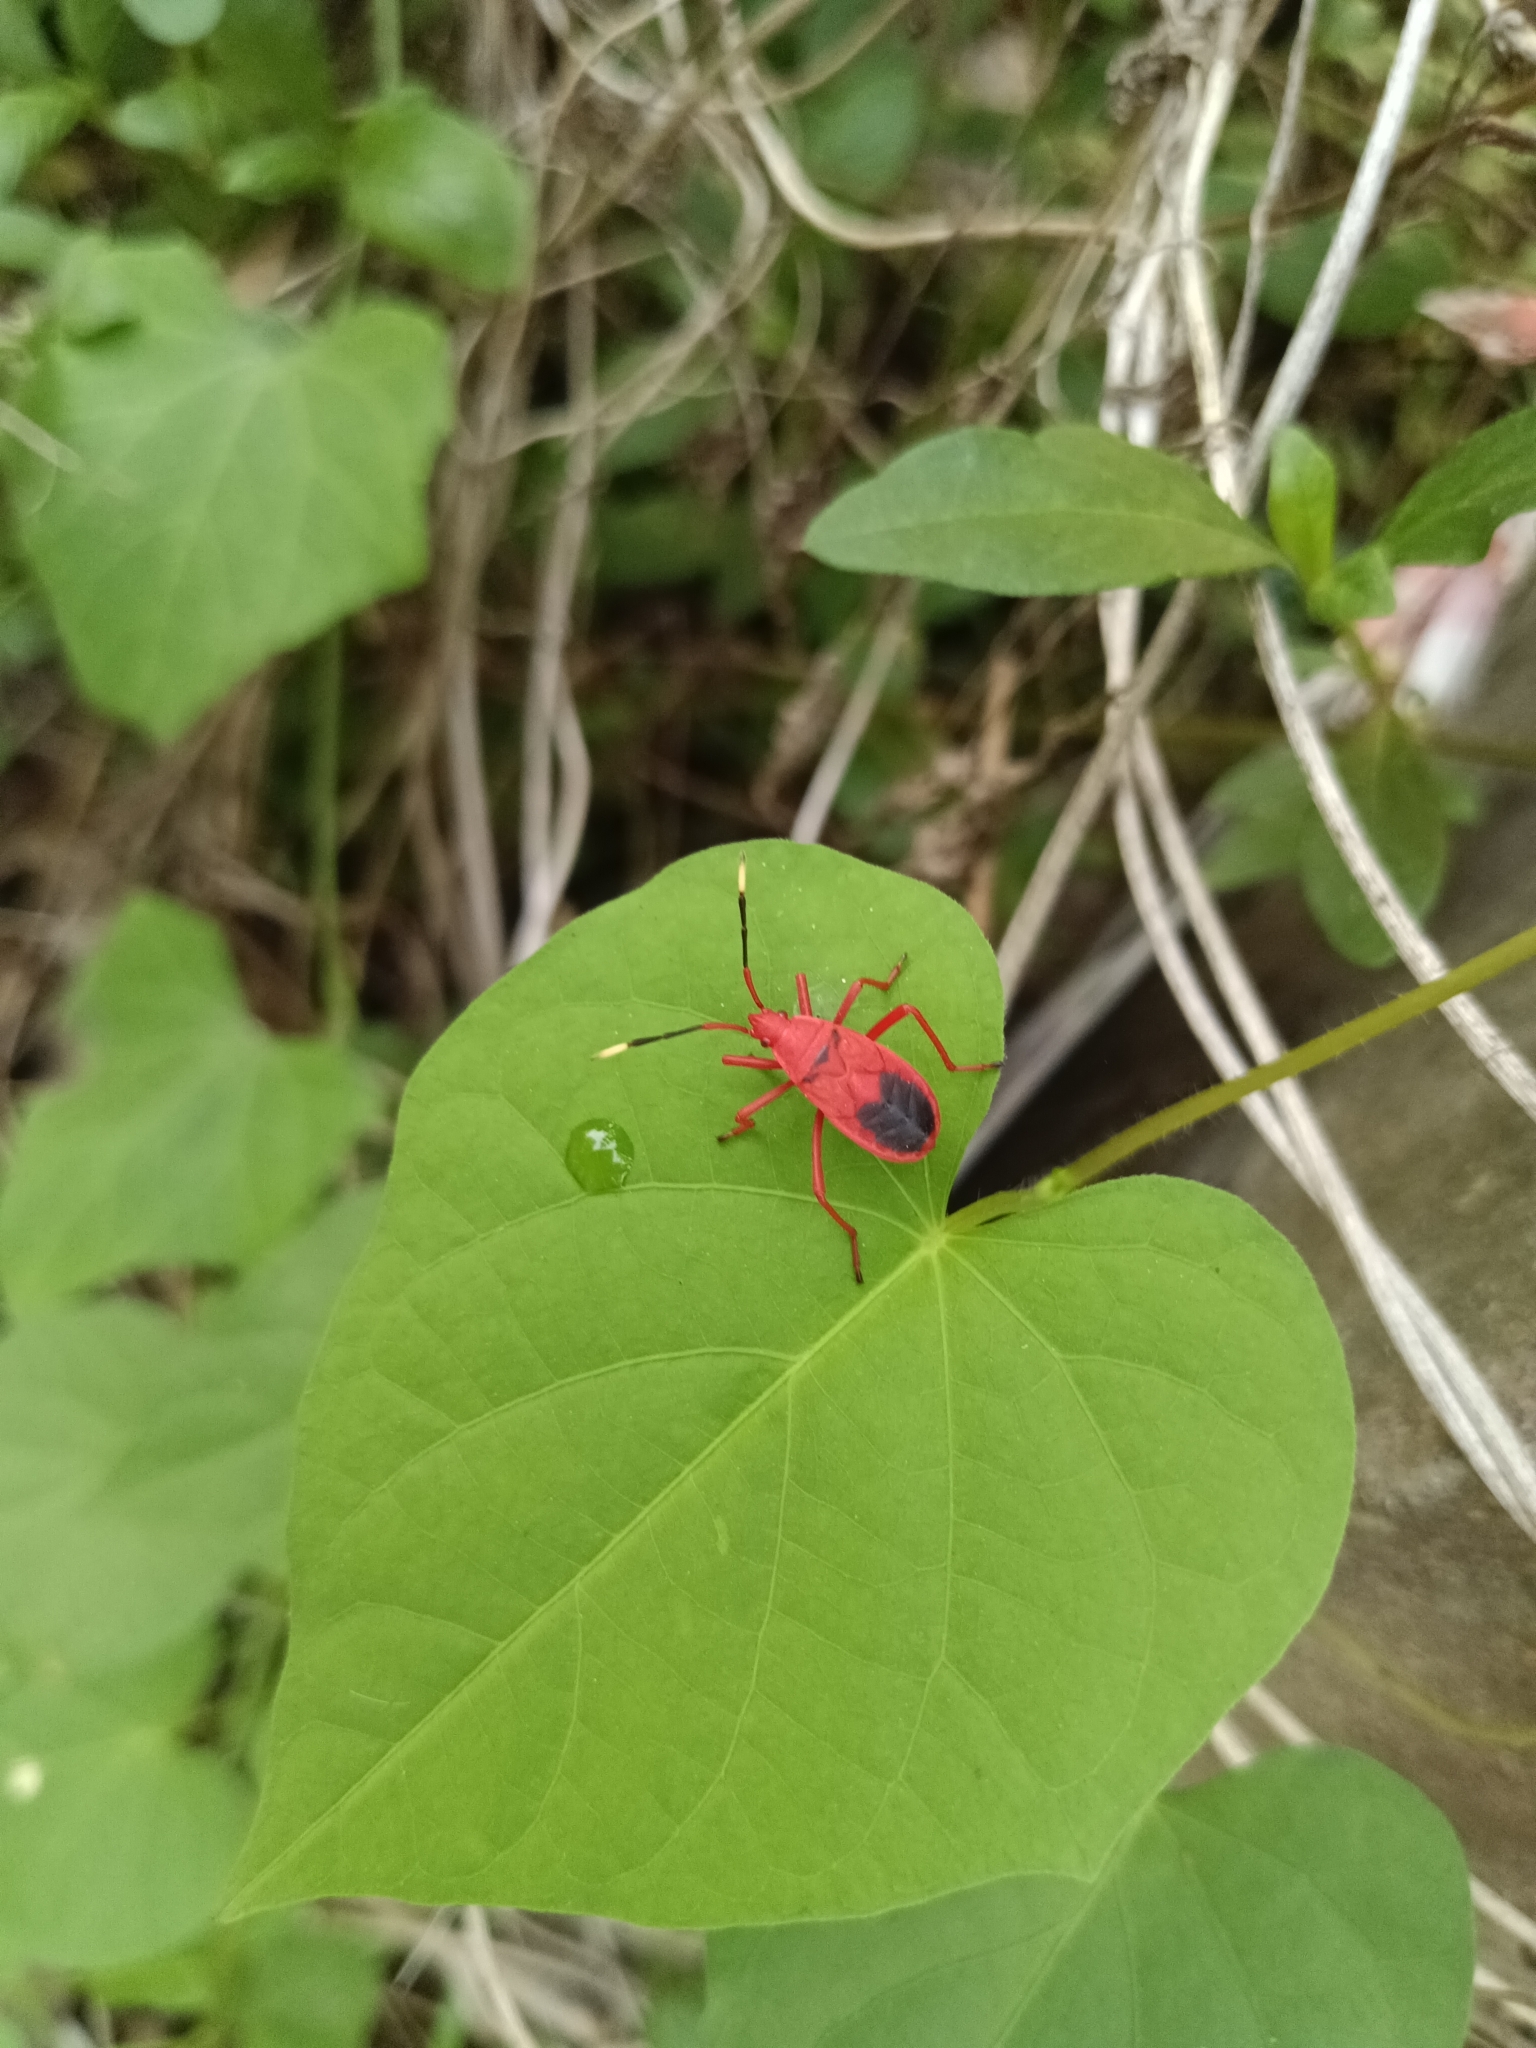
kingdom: Animalia
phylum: Arthropoda
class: Insecta
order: Hemiptera
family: Pyrrhocoridae
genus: Probergrothius
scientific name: Probergrothius
